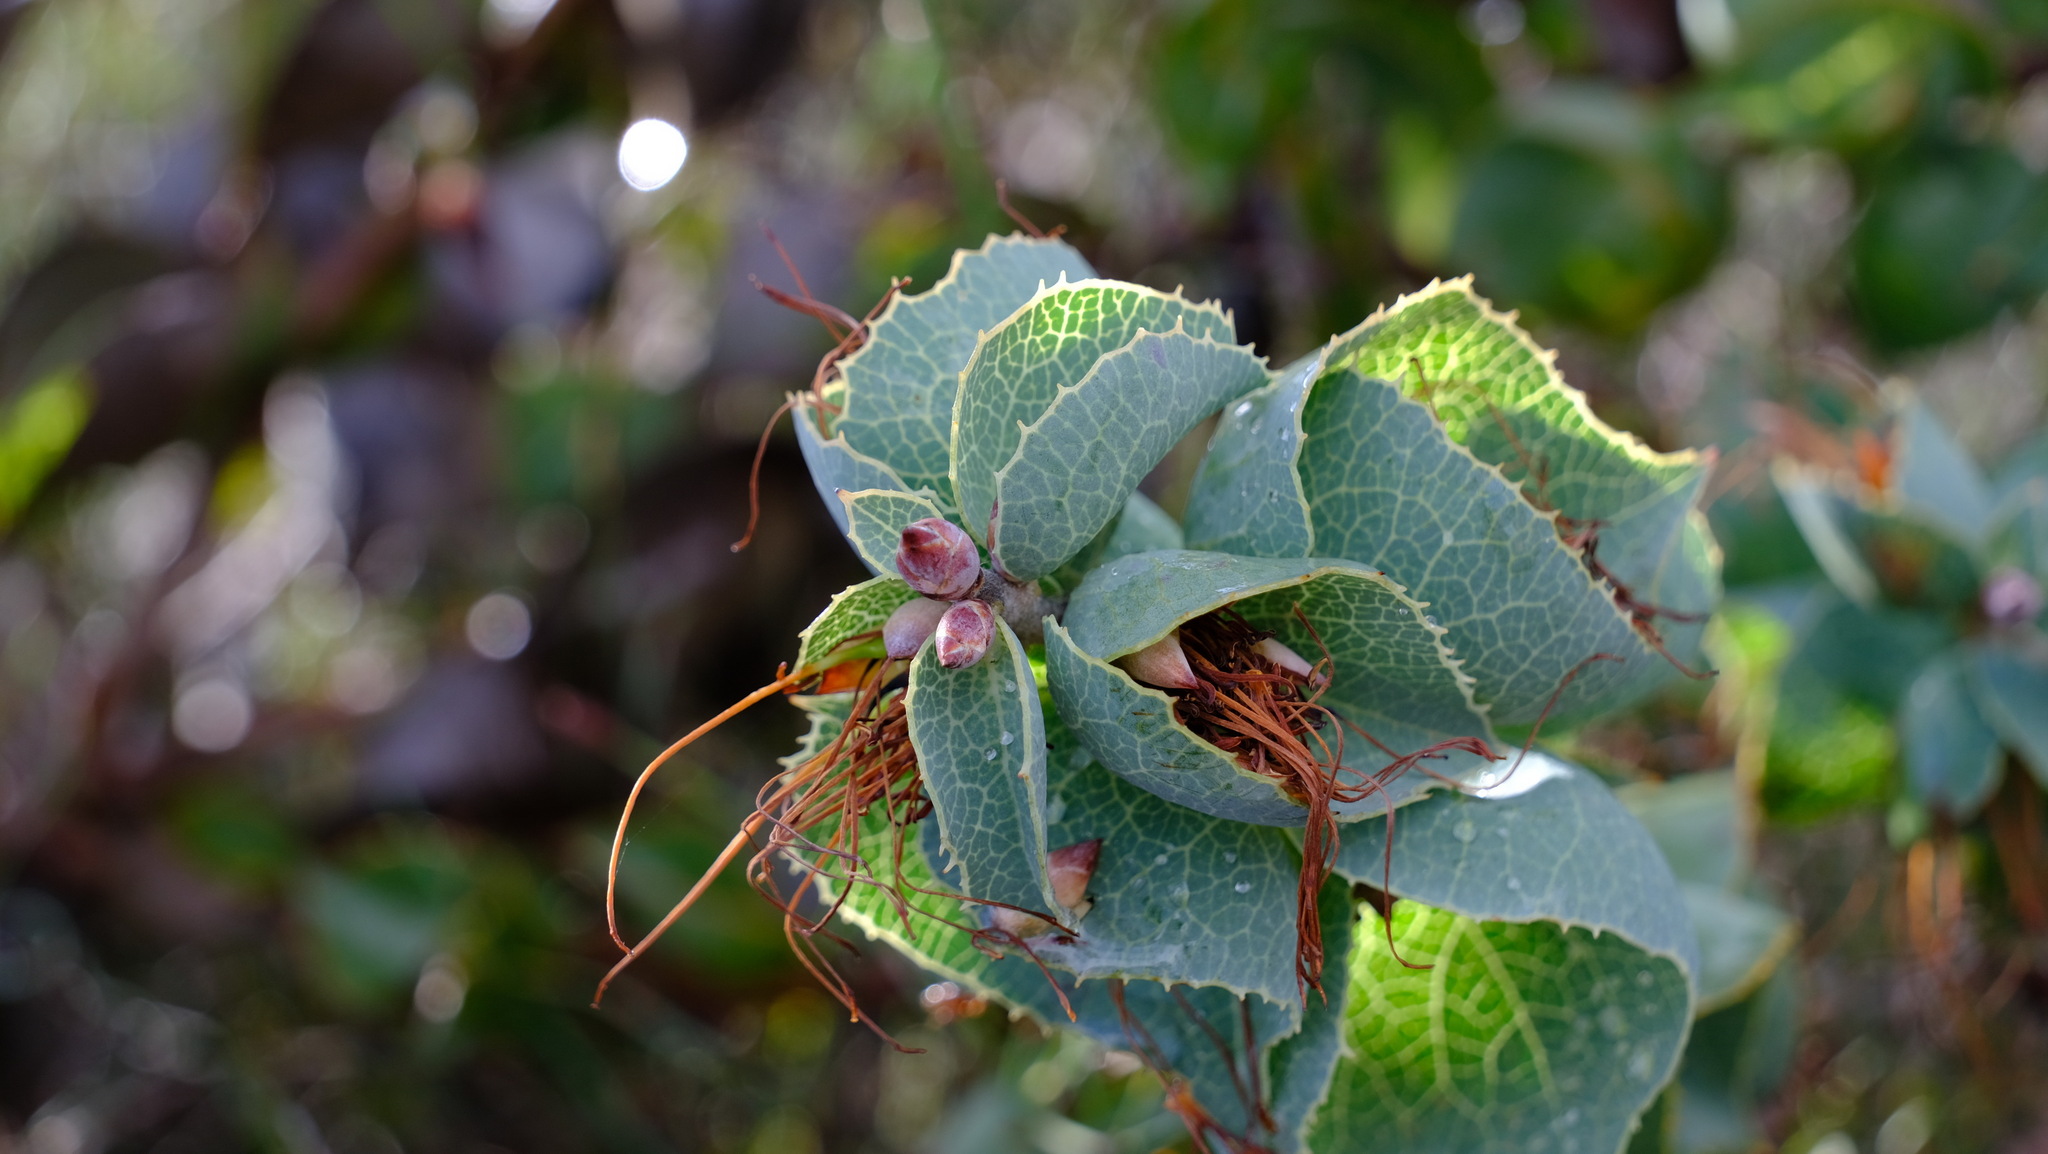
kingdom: Plantae
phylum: Tracheophyta
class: Magnoliopsida
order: Proteales
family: Proteaceae
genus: Hakea
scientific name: Hakea conchifolia
